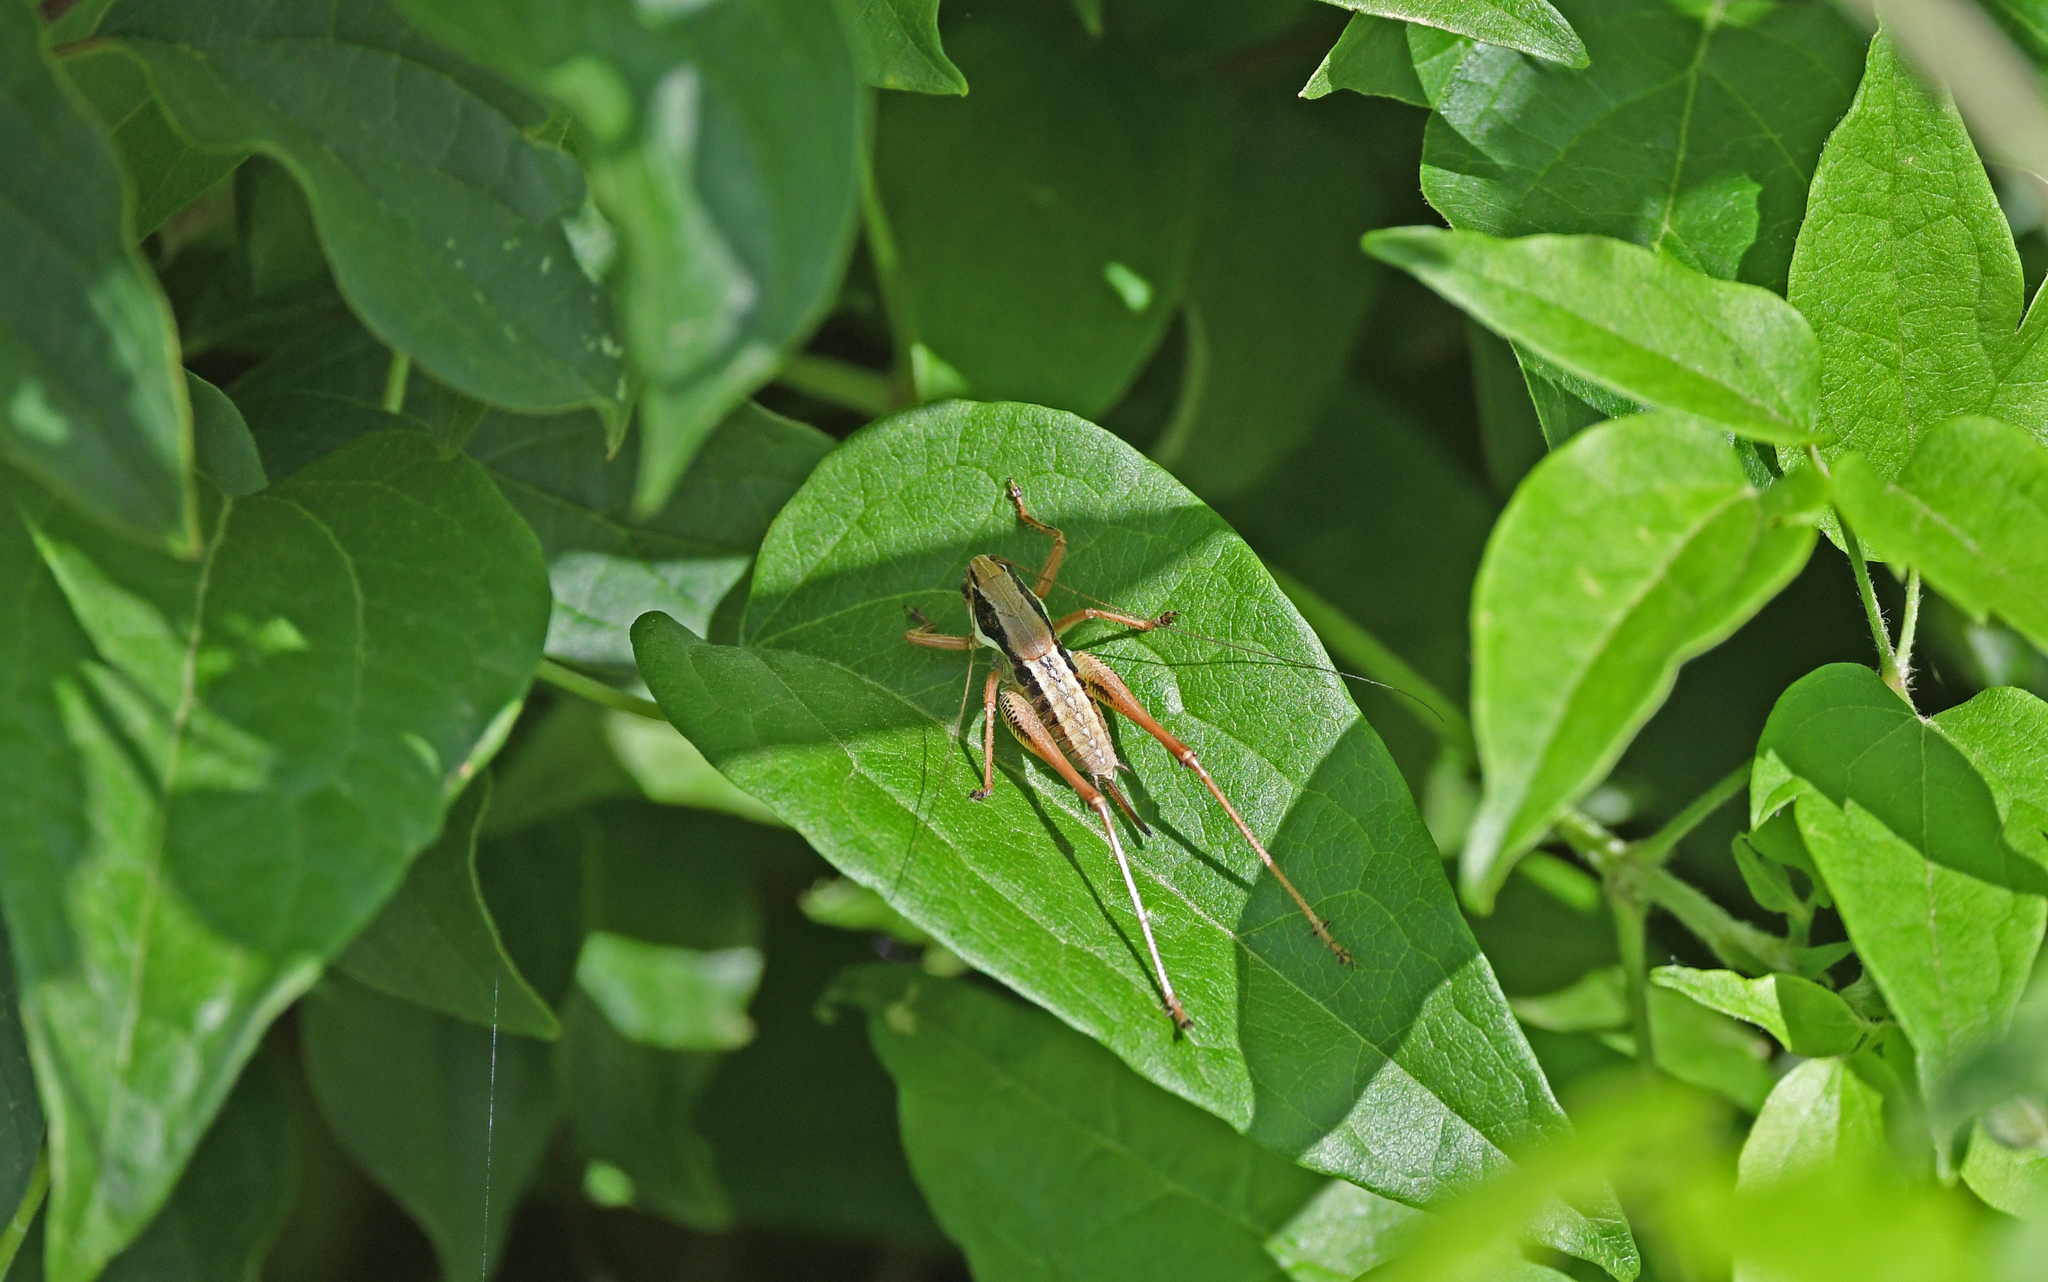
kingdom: Animalia
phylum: Arthropoda
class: Insecta
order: Orthoptera
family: Tettigoniidae
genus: Eupholidoptera
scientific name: Eupholidoptera chabrieri
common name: Chabrier's marbled bush-cricket
